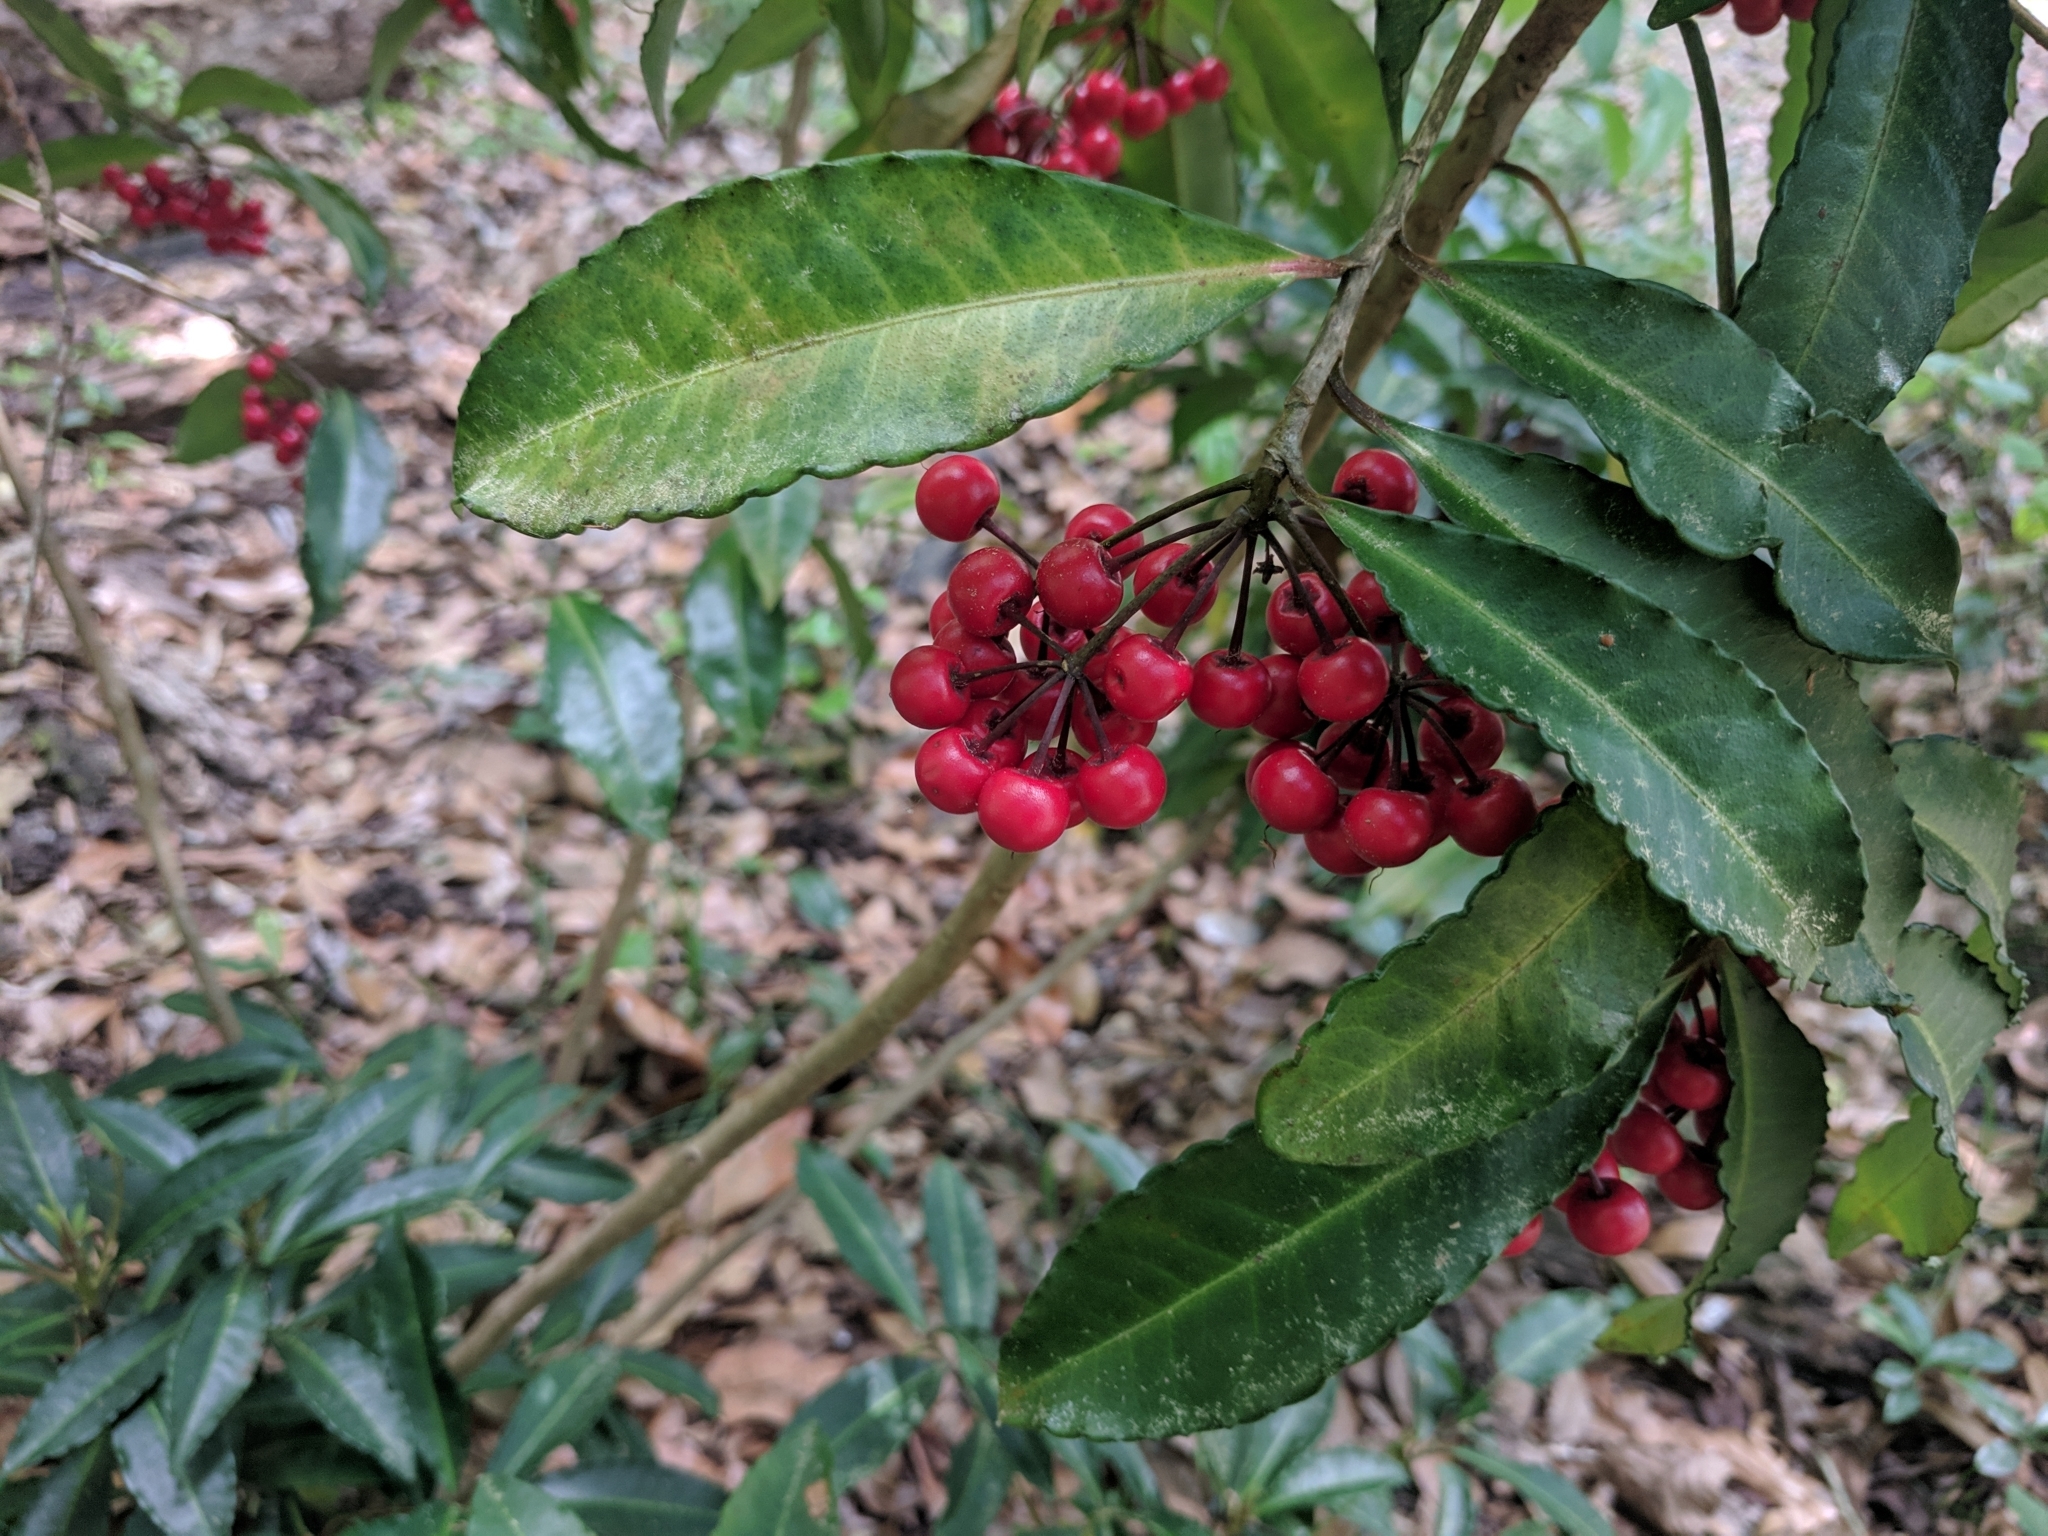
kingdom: Plantae
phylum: Tracheophyta
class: Magnoliopsida
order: Ericales
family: Primulaceae
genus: Ardisia
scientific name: Ardisia crenata
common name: Hen's eyes
